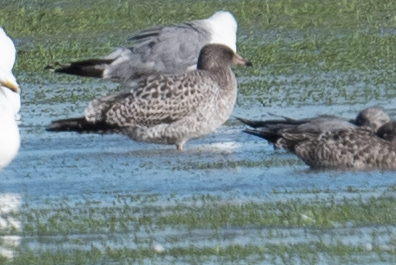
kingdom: Animalia
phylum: Chordata
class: Aves
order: Charadriiformes
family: Laridae
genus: Larus
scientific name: Larus californicus
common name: California gull
